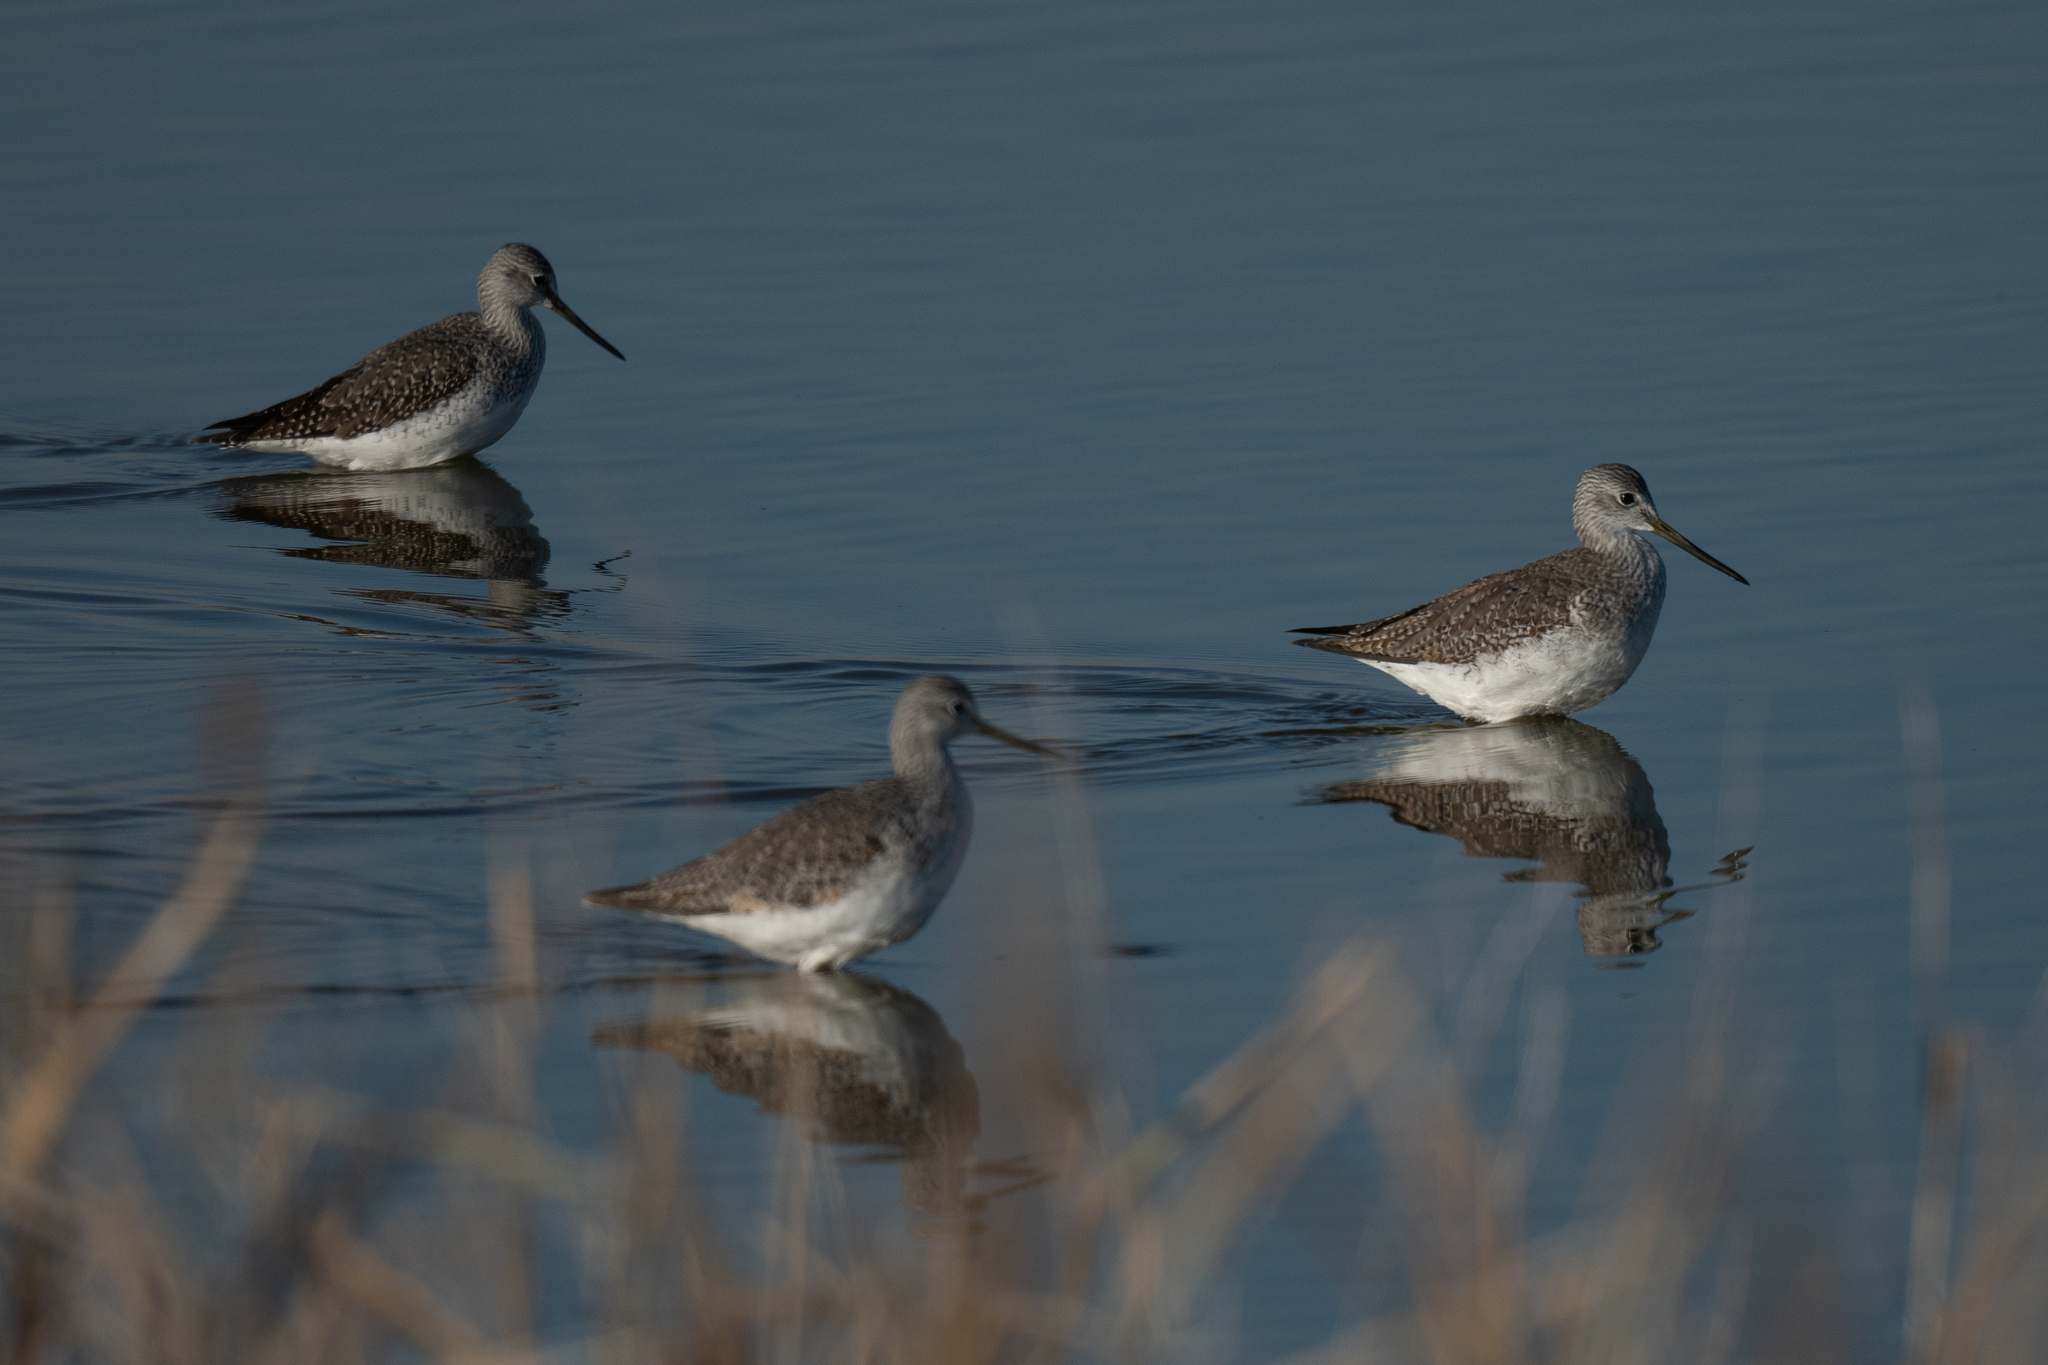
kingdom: Animalia
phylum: Chordata
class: Aves
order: Charadriiformes
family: Scolopacidae
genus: Tringa
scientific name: Tringa melanoleuca
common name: Greater yellowlegs
